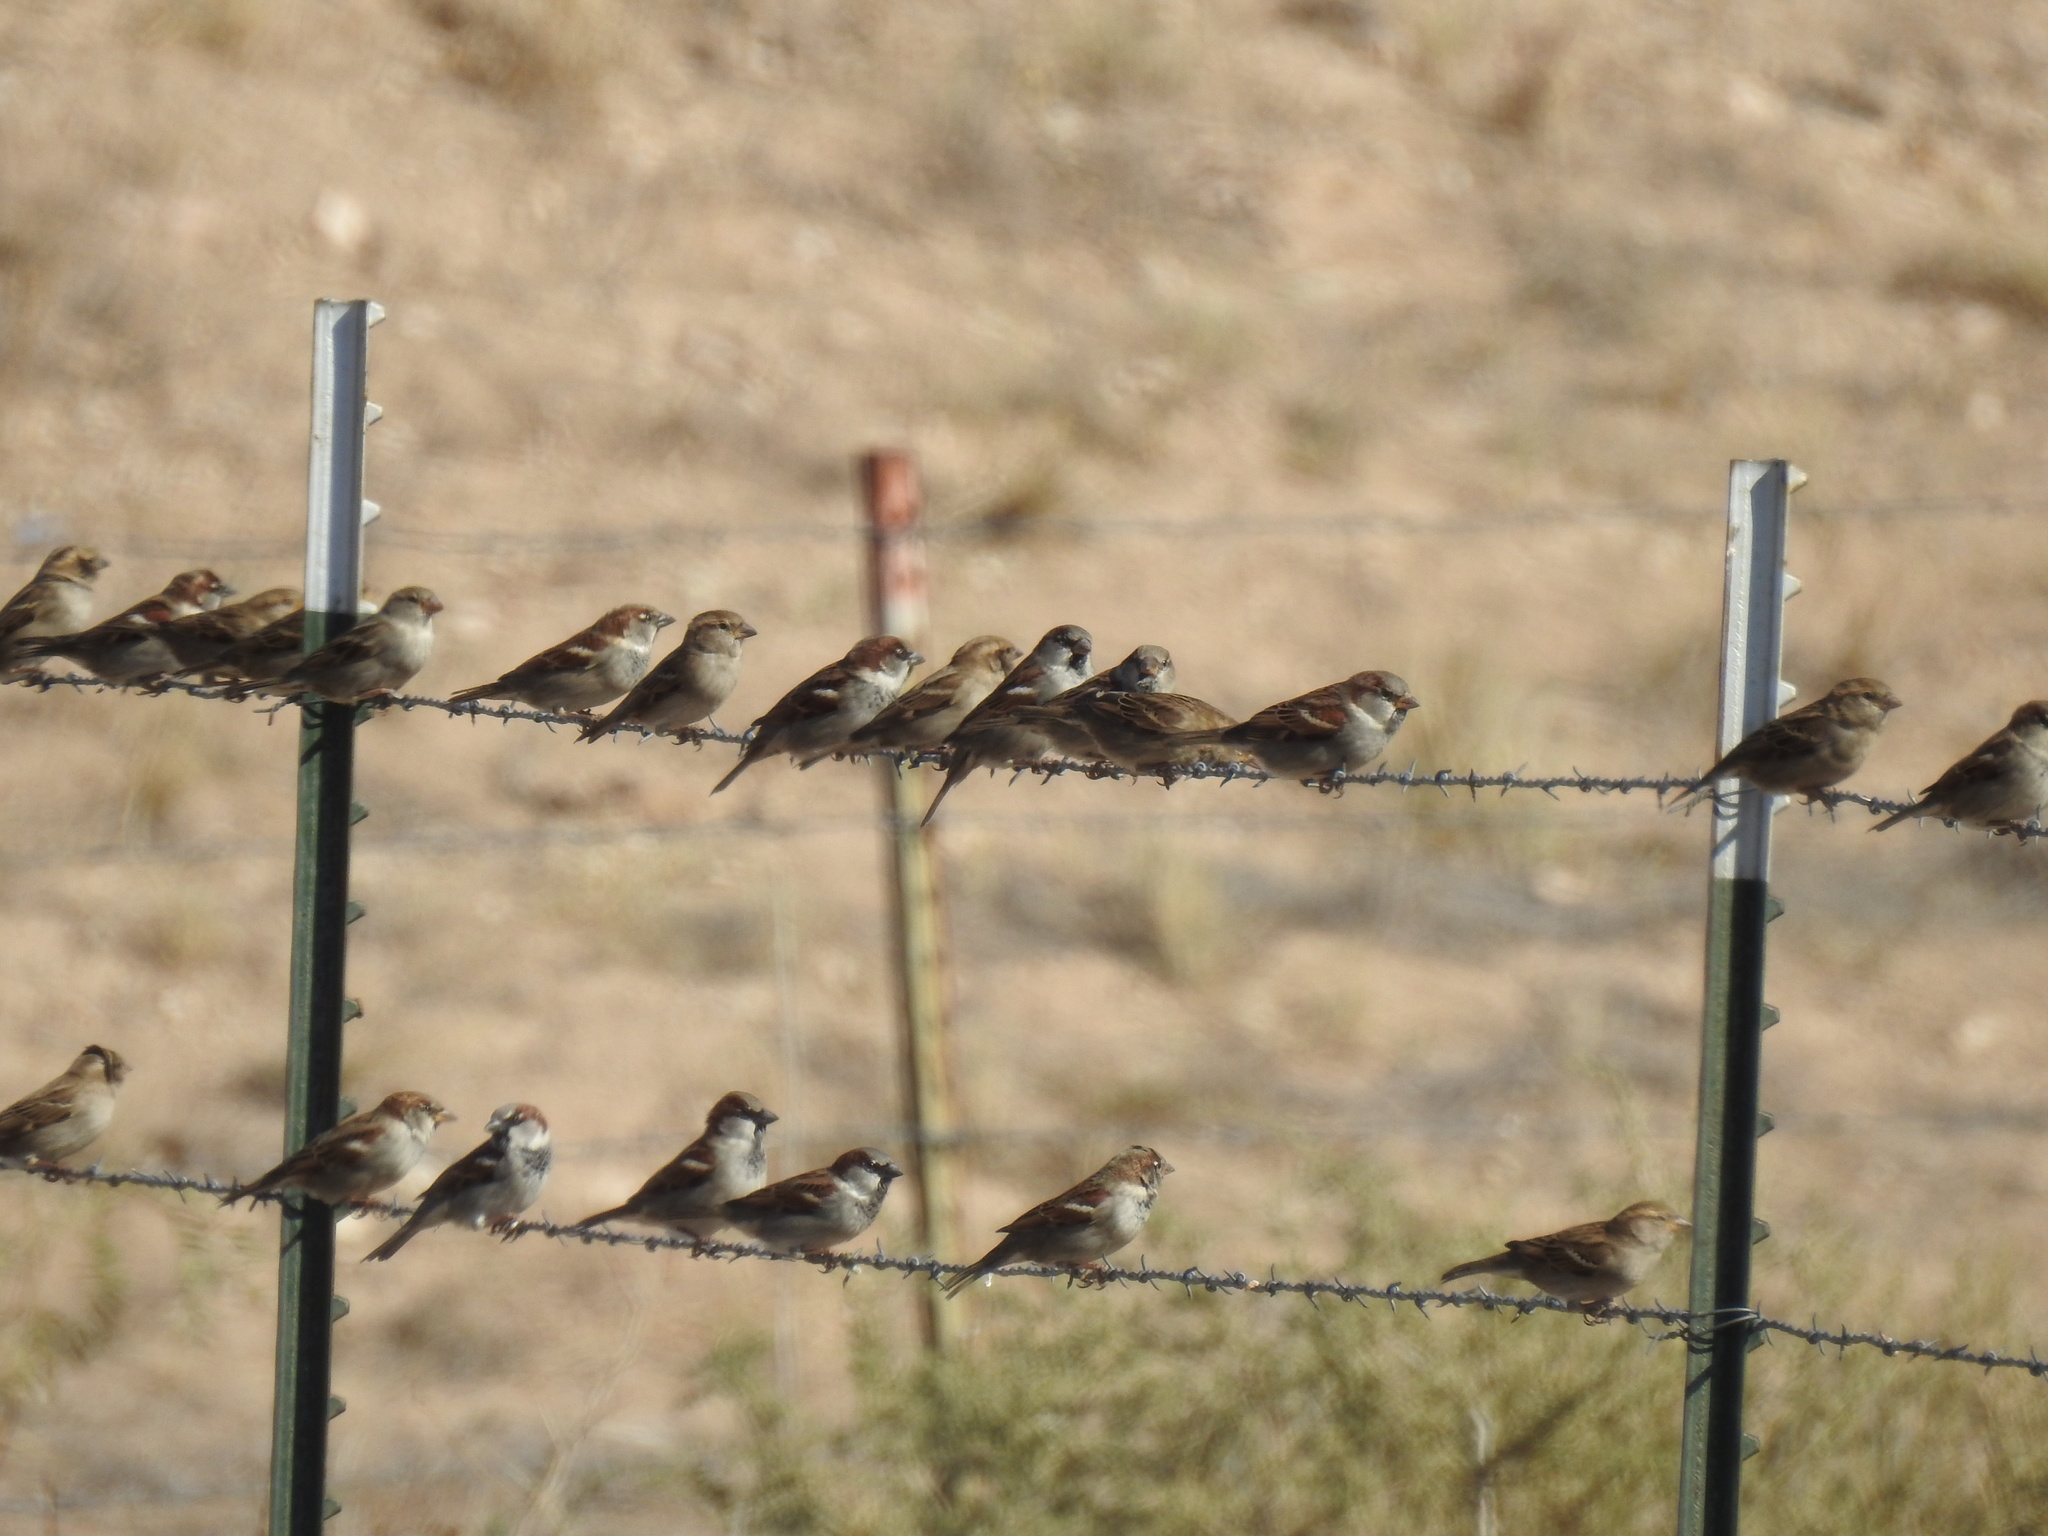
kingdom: Plantae
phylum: Tracheophyta
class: Magnoliopsida
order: Fabales
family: Fabaceae
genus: Prosopis
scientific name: Prosopis glandulosa
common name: Honey mesquite
